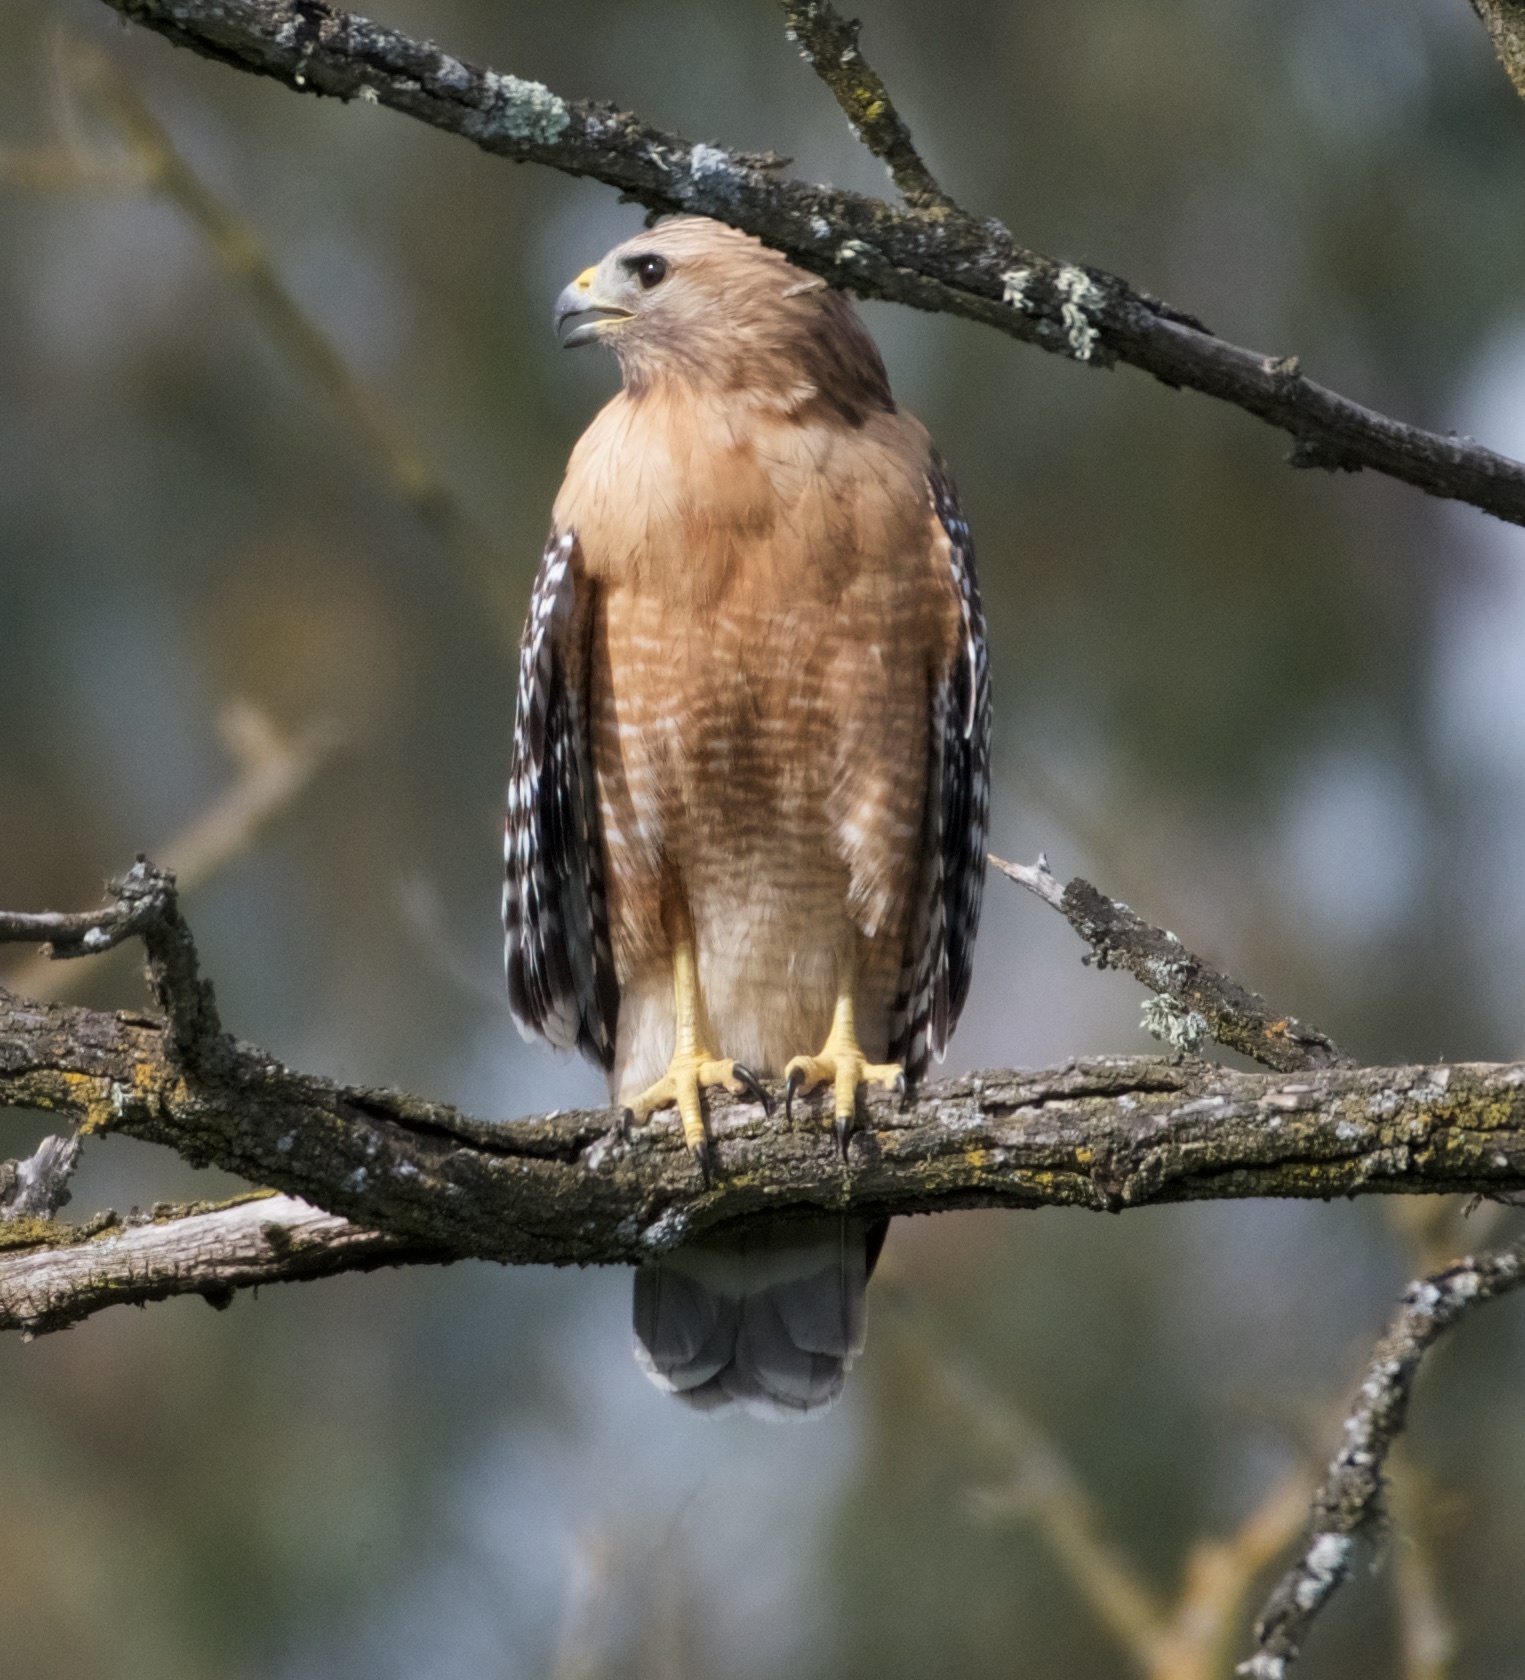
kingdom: Animalia
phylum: Chordata
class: Aves
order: Accipitriformes
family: Accipitridae
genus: Buteo
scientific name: Buteo lineatus
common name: Red-shouldered hawk
